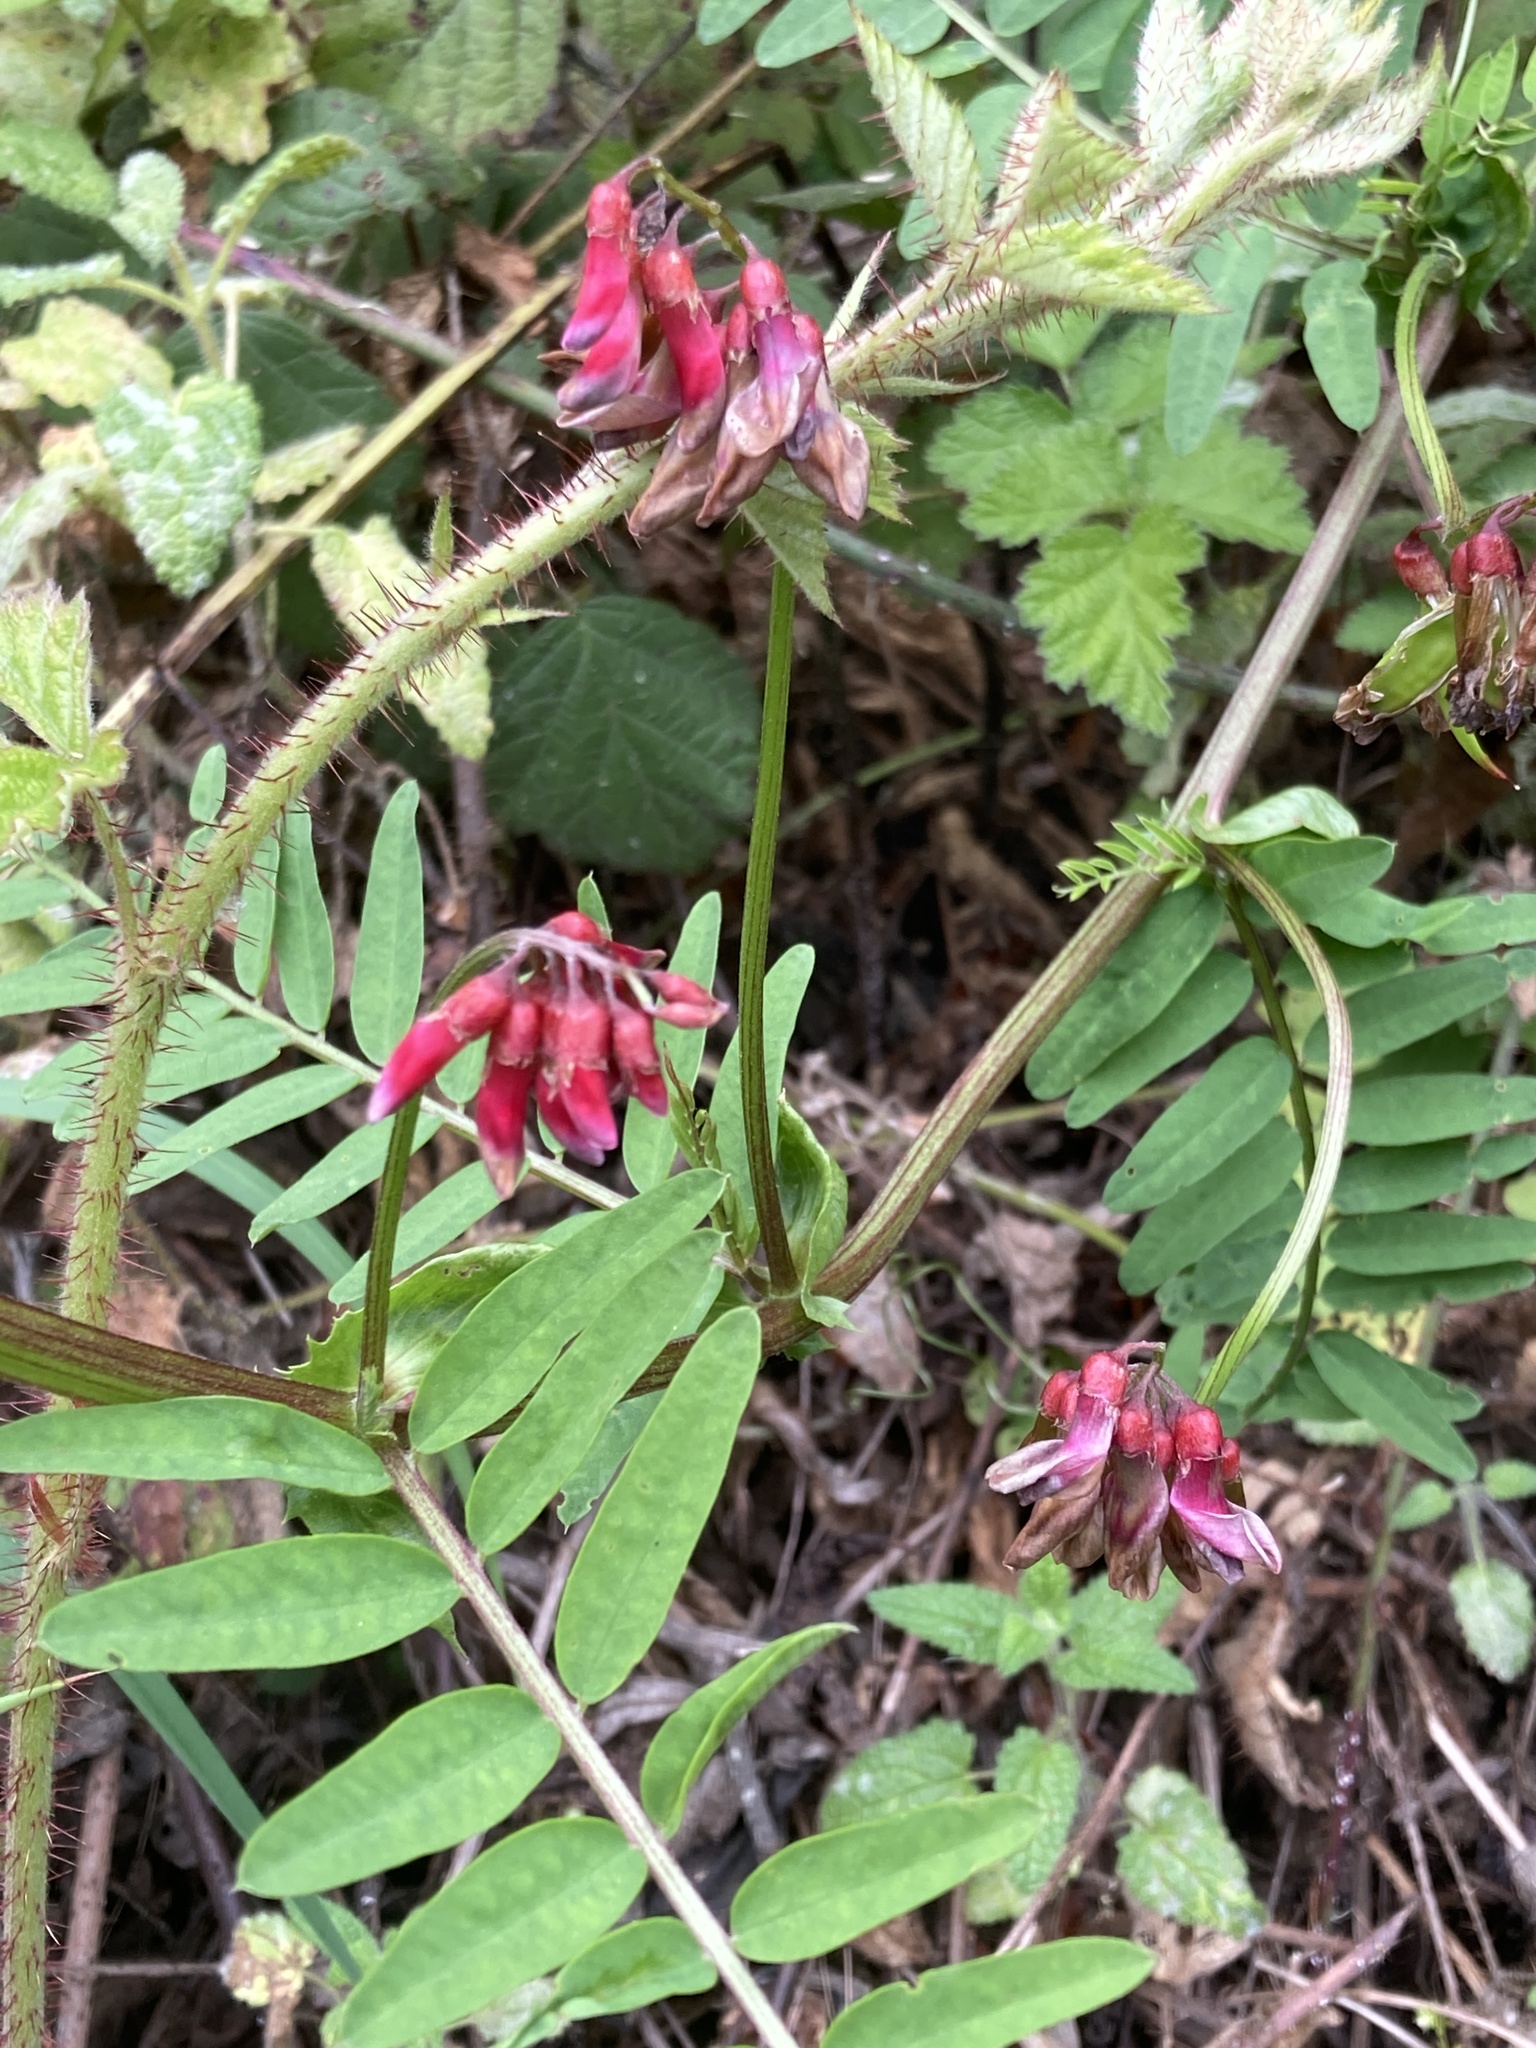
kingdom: Plantae
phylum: Tracheophyta
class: Magnoliopsida
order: Fabales
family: Fabaceae
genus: Vicia
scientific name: Vicia
